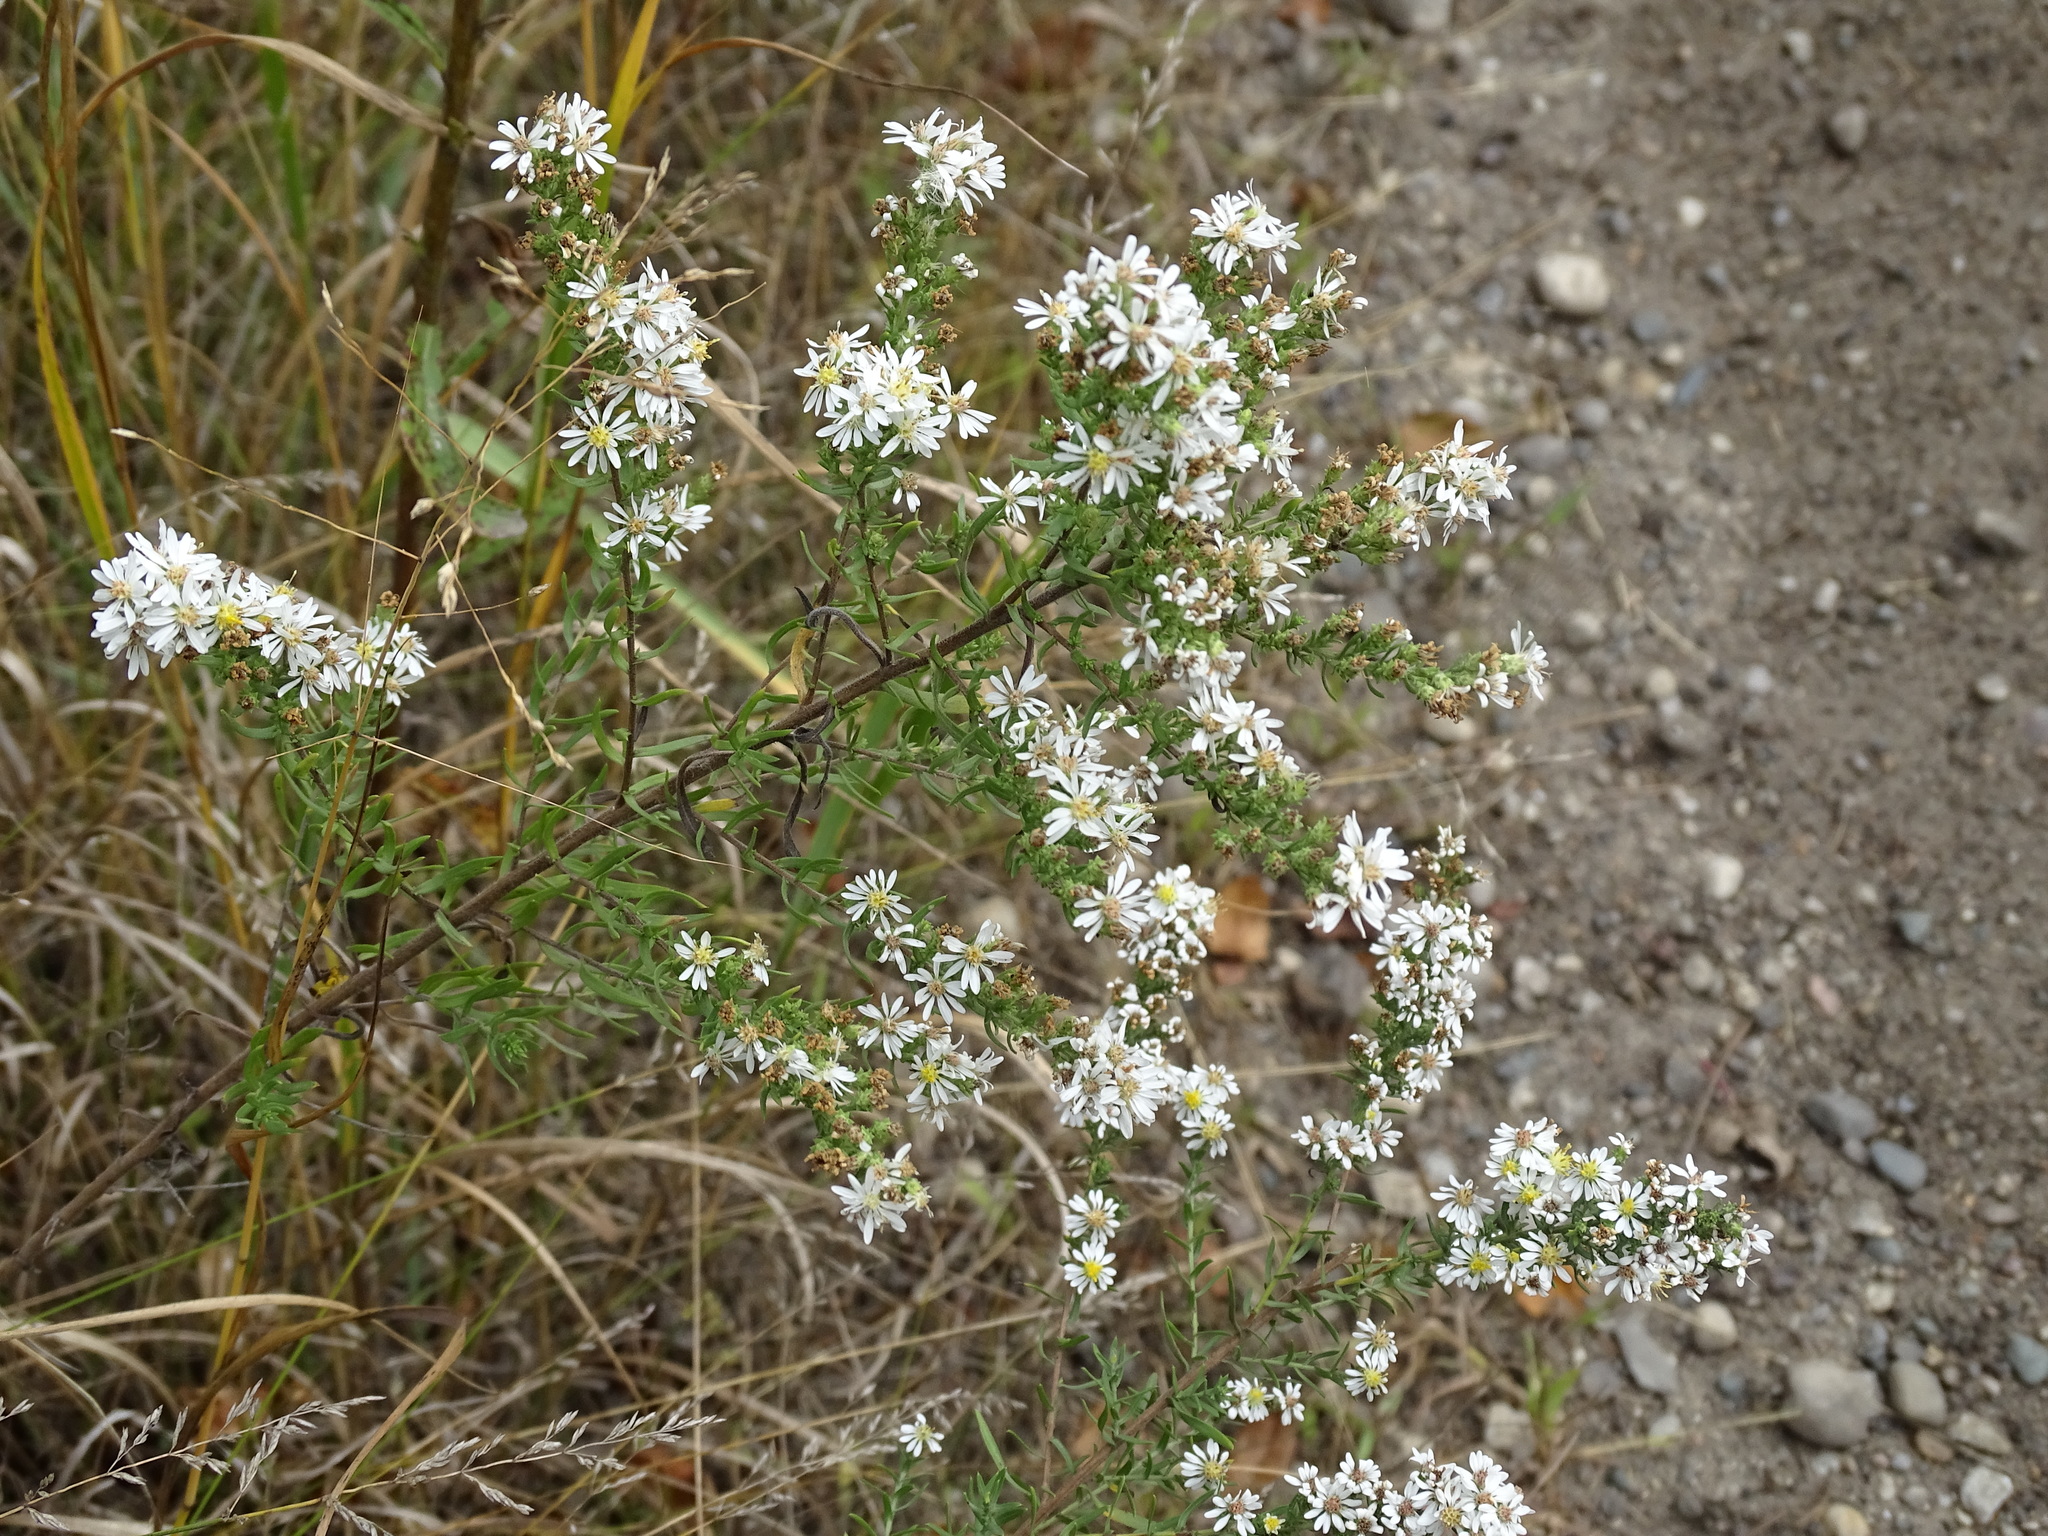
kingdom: Plantae
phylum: Tracheophyta
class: Magnoliopsida
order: Asterales
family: Asteraceae
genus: Symphyotrichum
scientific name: Symphyotrichum ericoides
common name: Heath aster
